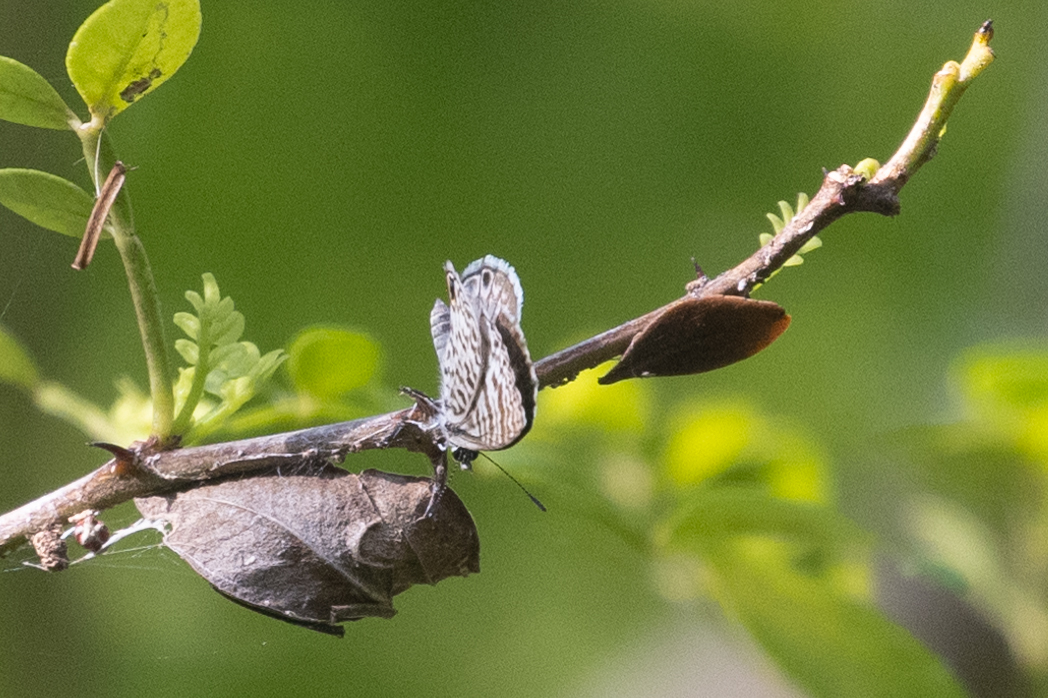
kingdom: Animalia
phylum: Arthropoda
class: Insecta
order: Lepidoptera
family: Lycaenidae
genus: Leptotes
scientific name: Leptotes cassius
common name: Cassius blue
